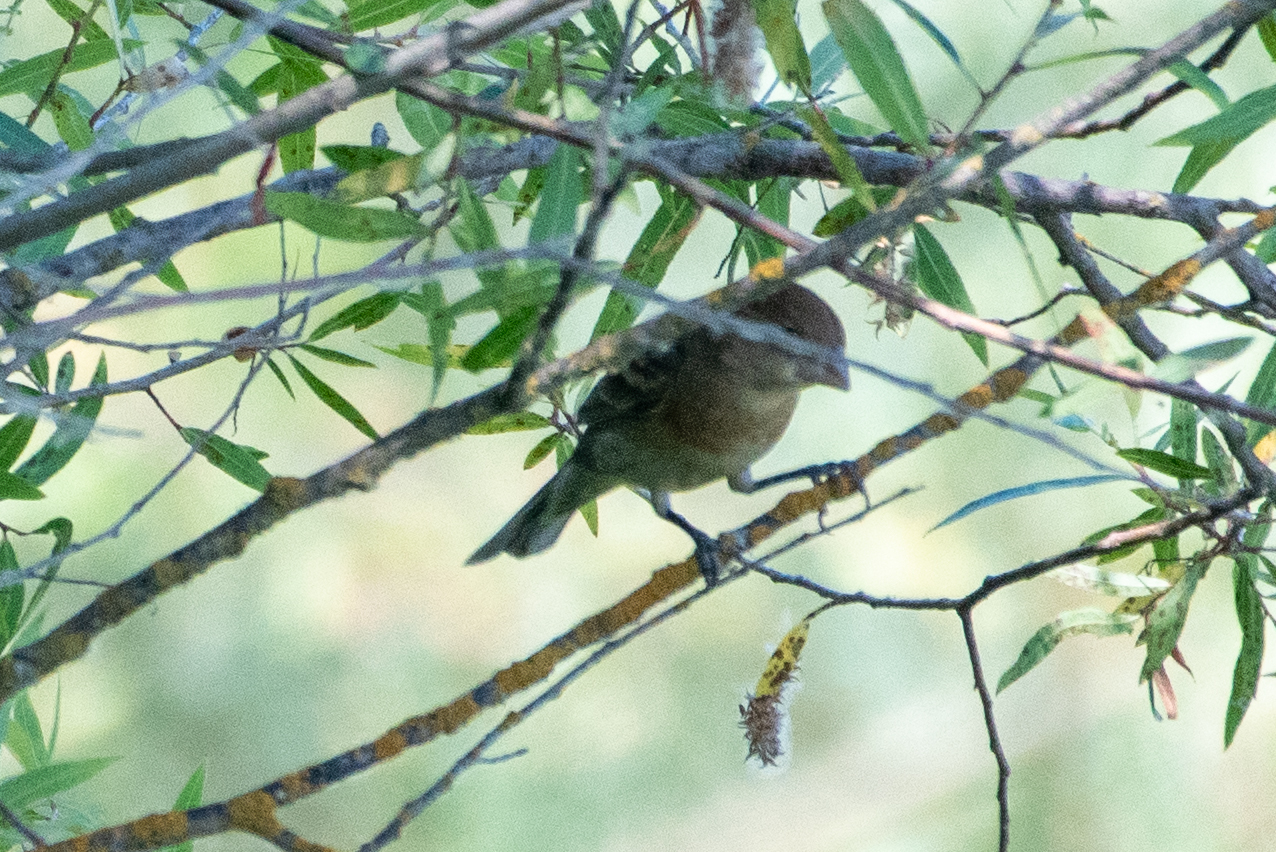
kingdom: Animalia
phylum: Chordata
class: Aves
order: Passeriformes
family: Cardinalidae
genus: Passerina
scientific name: Passerina caerulea
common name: Blue grosbeak
